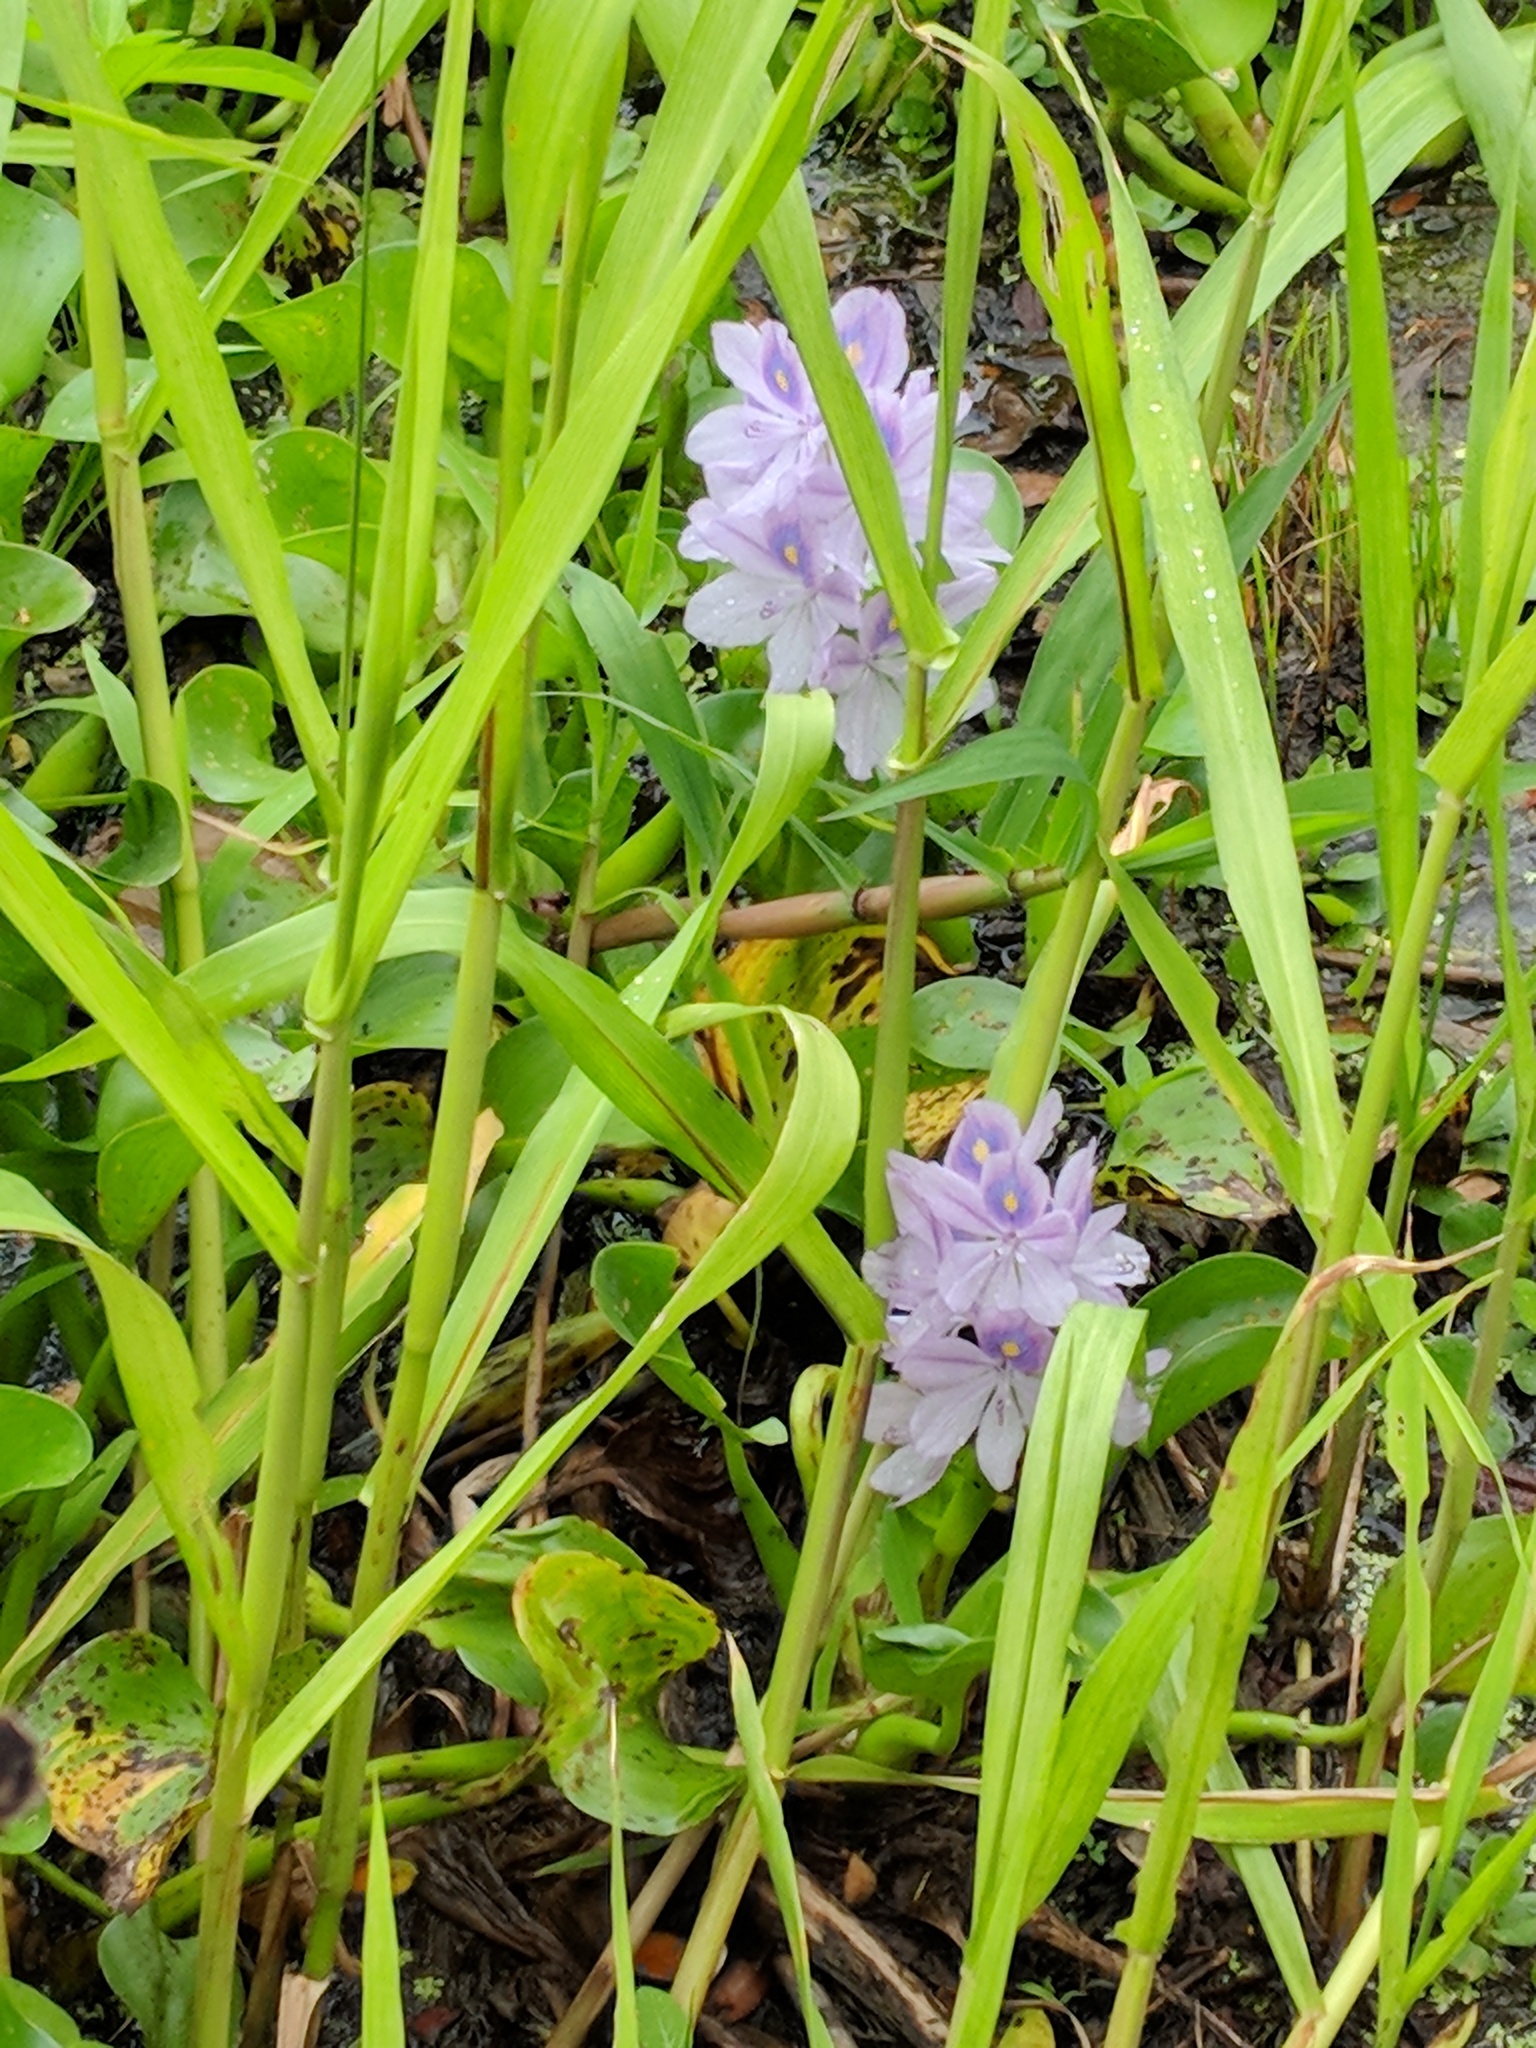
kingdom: Plantae
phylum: Tracheophyta
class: Liliopsida
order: Commelinales
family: Pontederiaceae
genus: Pontederia
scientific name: Pontederia crassipes
